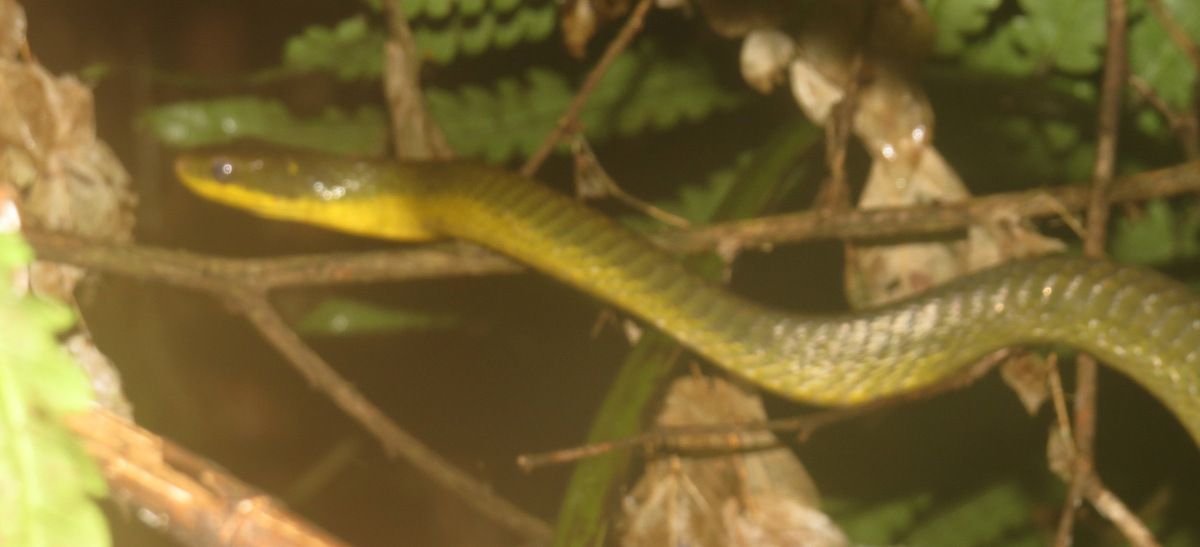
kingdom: Animalia
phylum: Chordata
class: Squamata
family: Colubridae
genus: Chironius
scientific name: Chironius quadricarinatus
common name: Central sipo
